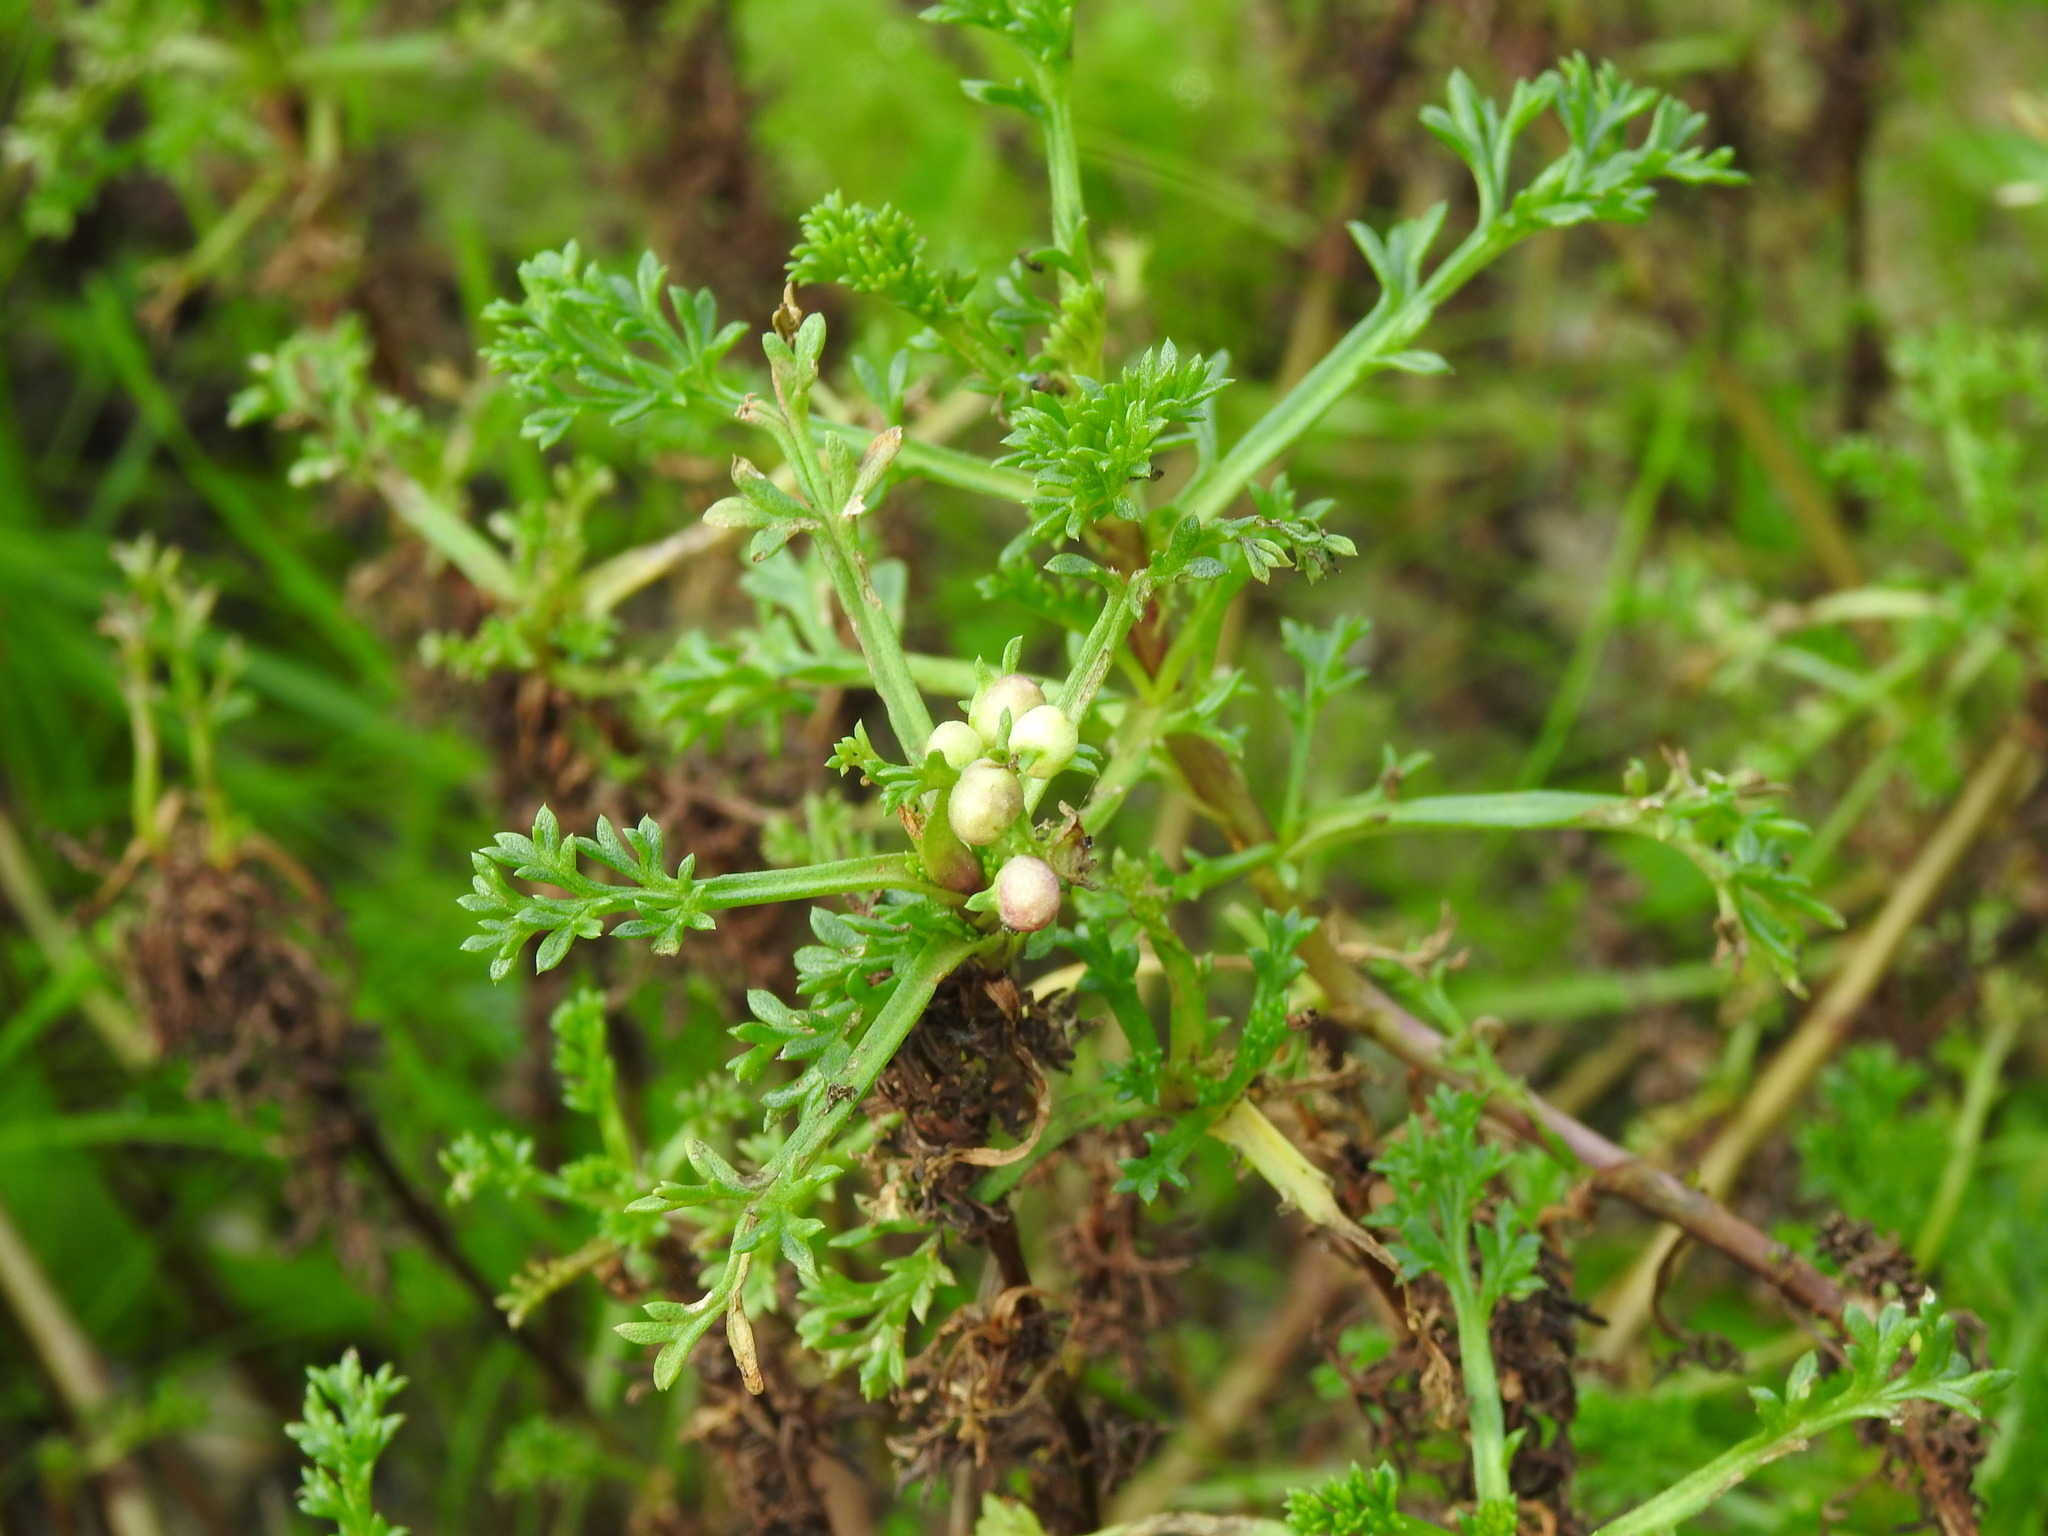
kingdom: Plantae
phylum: Tracheophyta
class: Magnoliopsida
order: Asterales
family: Asteraceae
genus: Artemisia
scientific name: Artemisia crithmifolia
